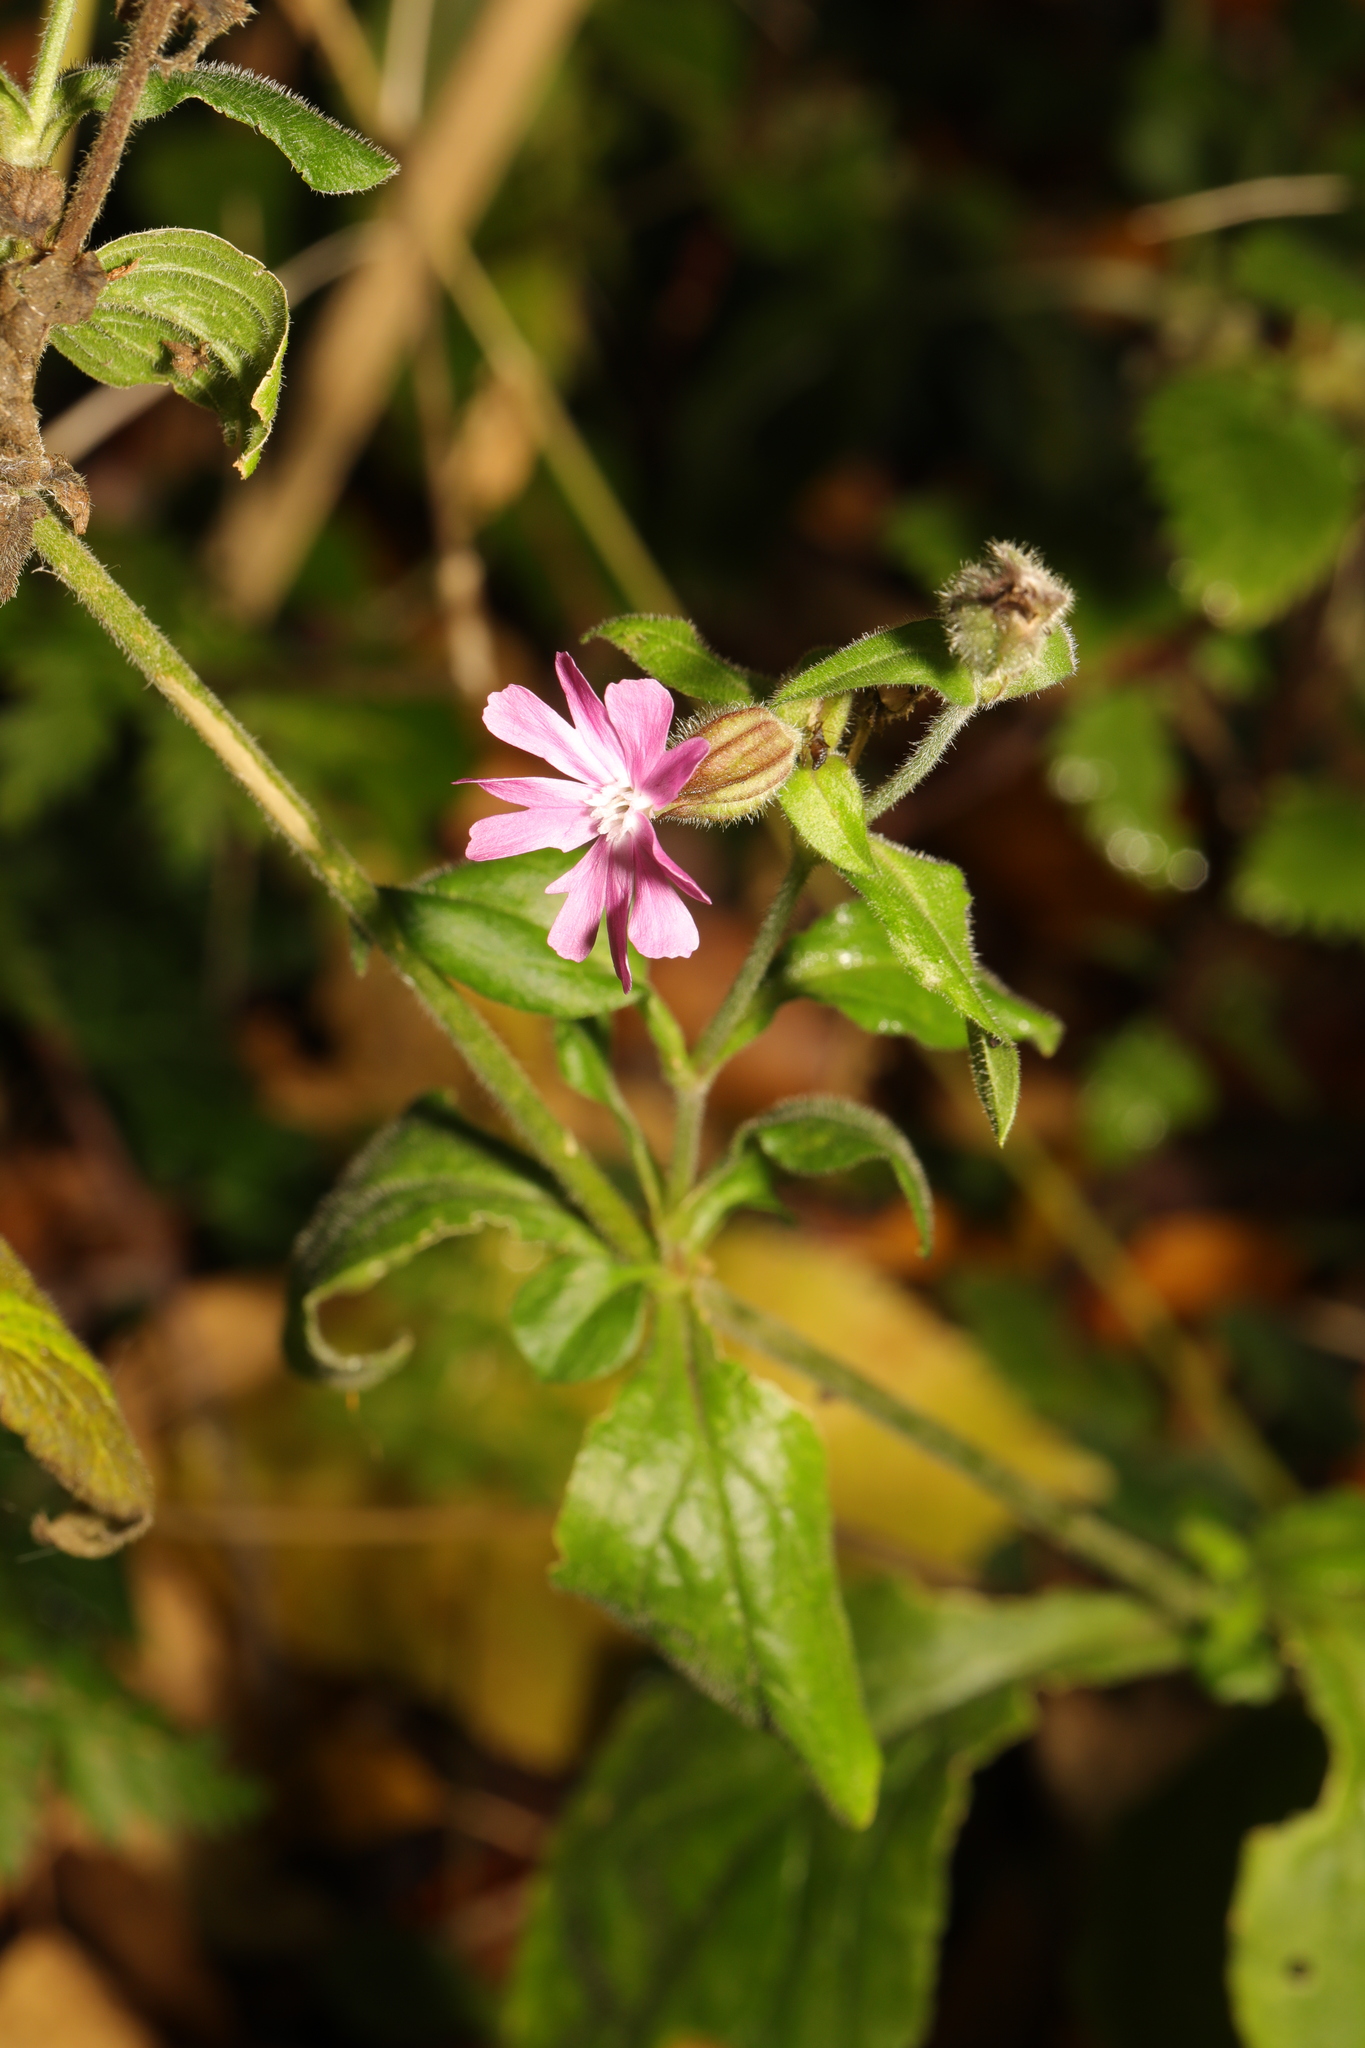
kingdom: Plantae
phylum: Tracheophyta
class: Magnoliopsida
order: Caryophyllales
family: Caryophyllaceae
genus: Silene
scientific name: Silene dioica
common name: Red campion
